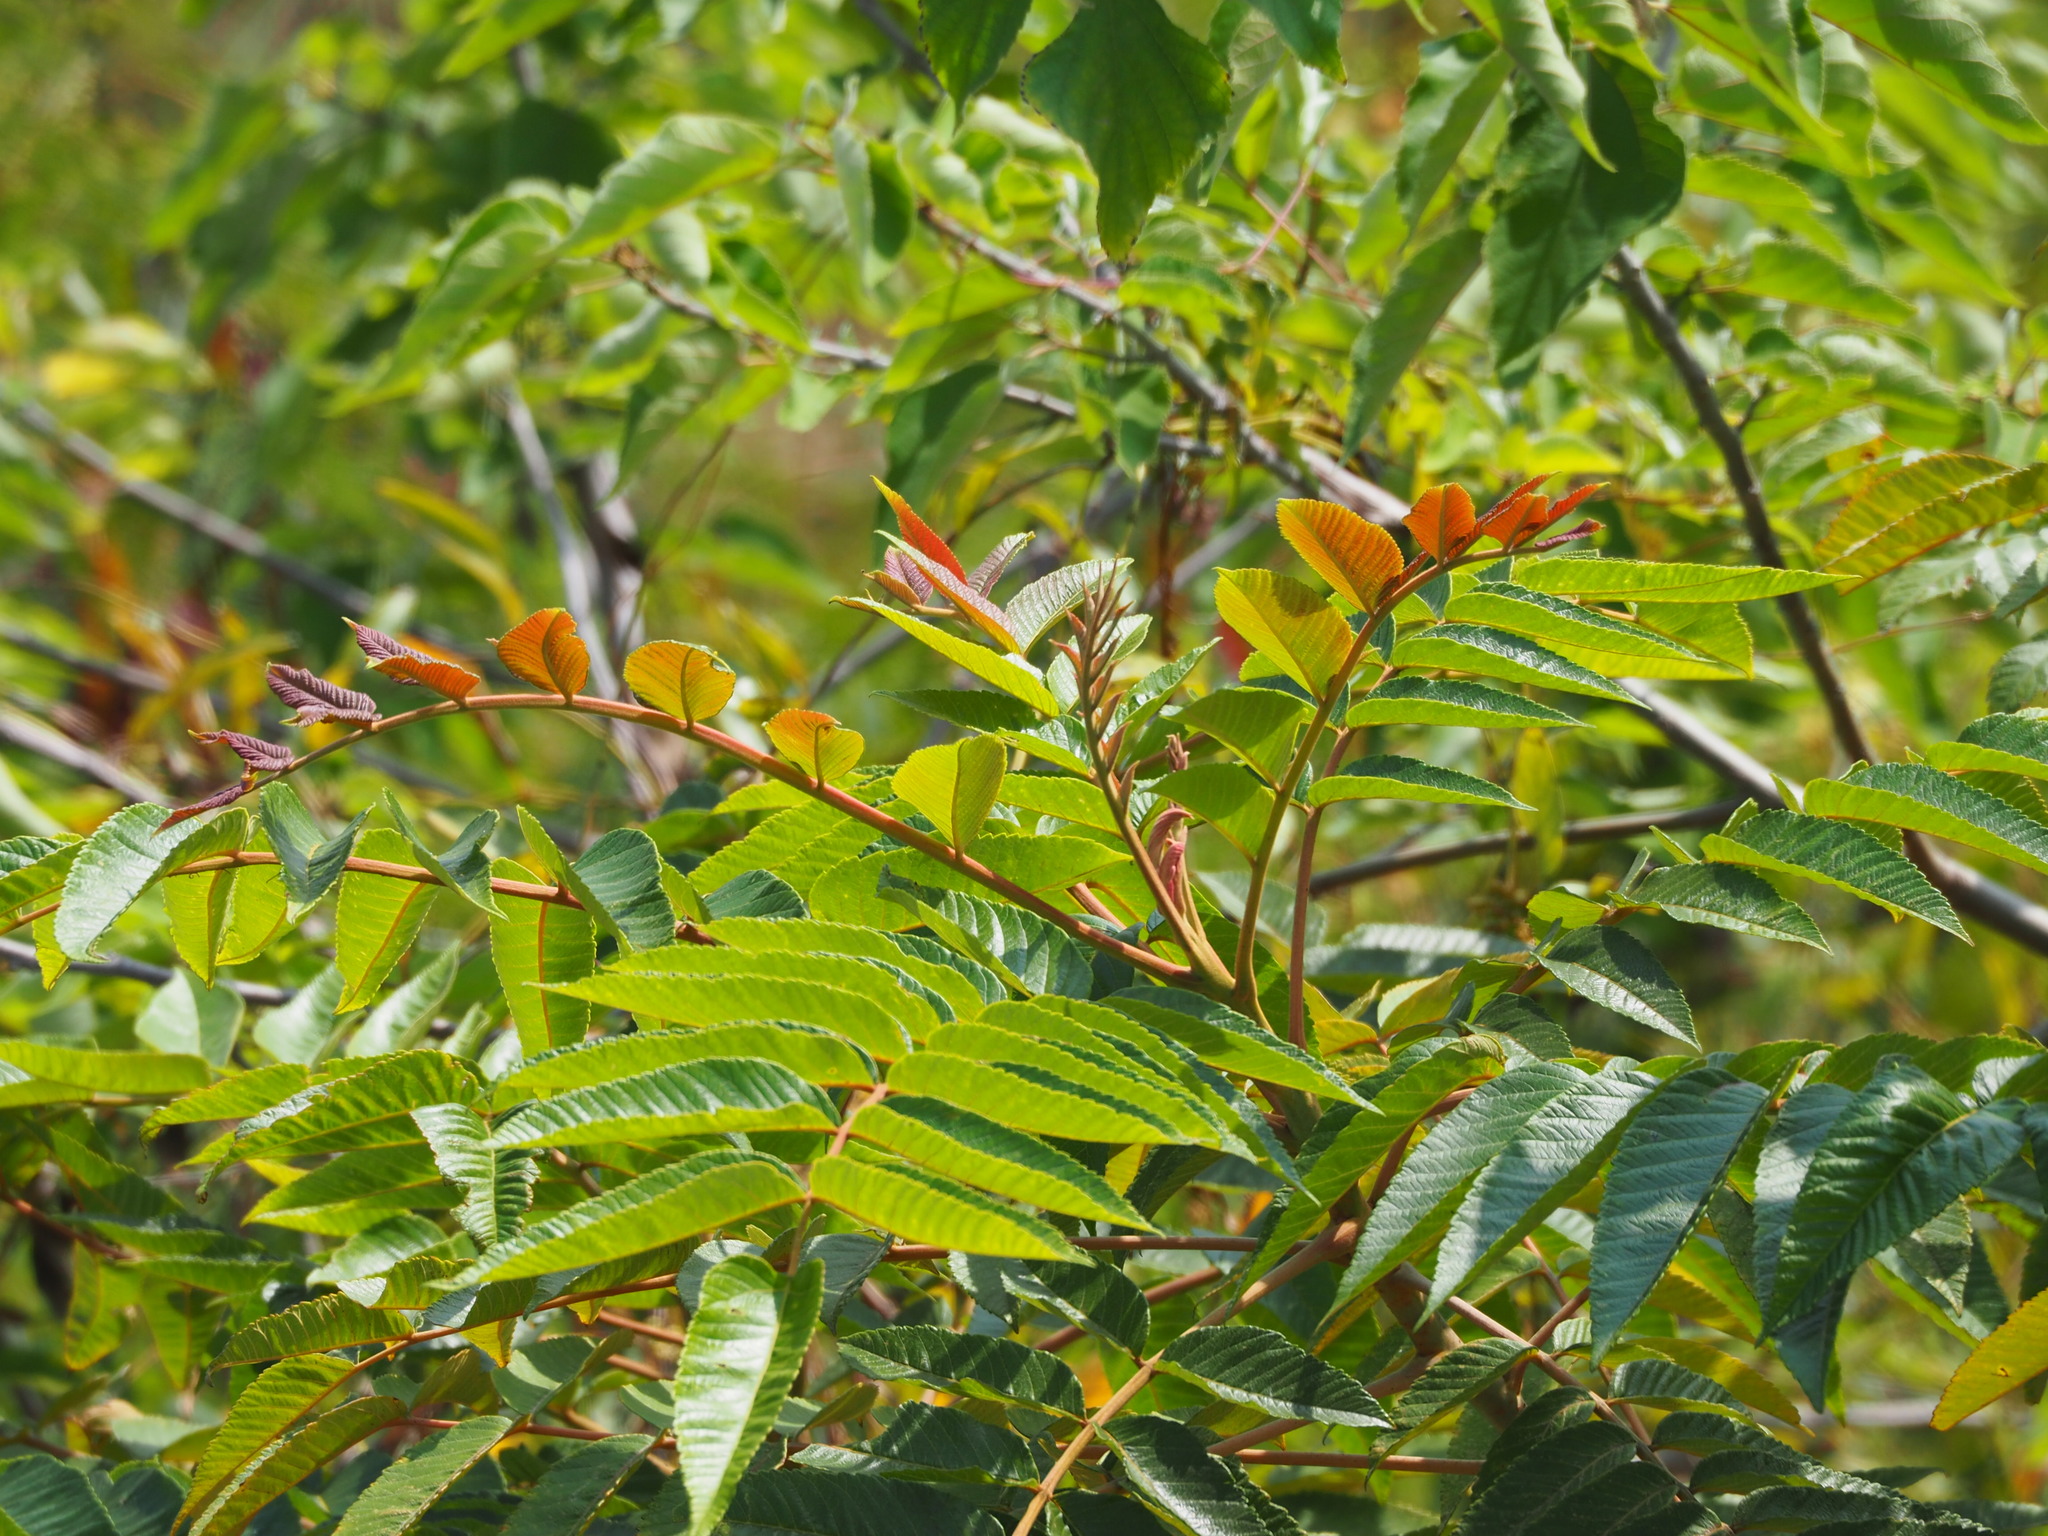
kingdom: Plantae
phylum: Tracheophyta
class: Magnoliopsida
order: Sapindales
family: Anacardiaceae
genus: Rhus
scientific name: Rhus chinensis
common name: Chinese gall
